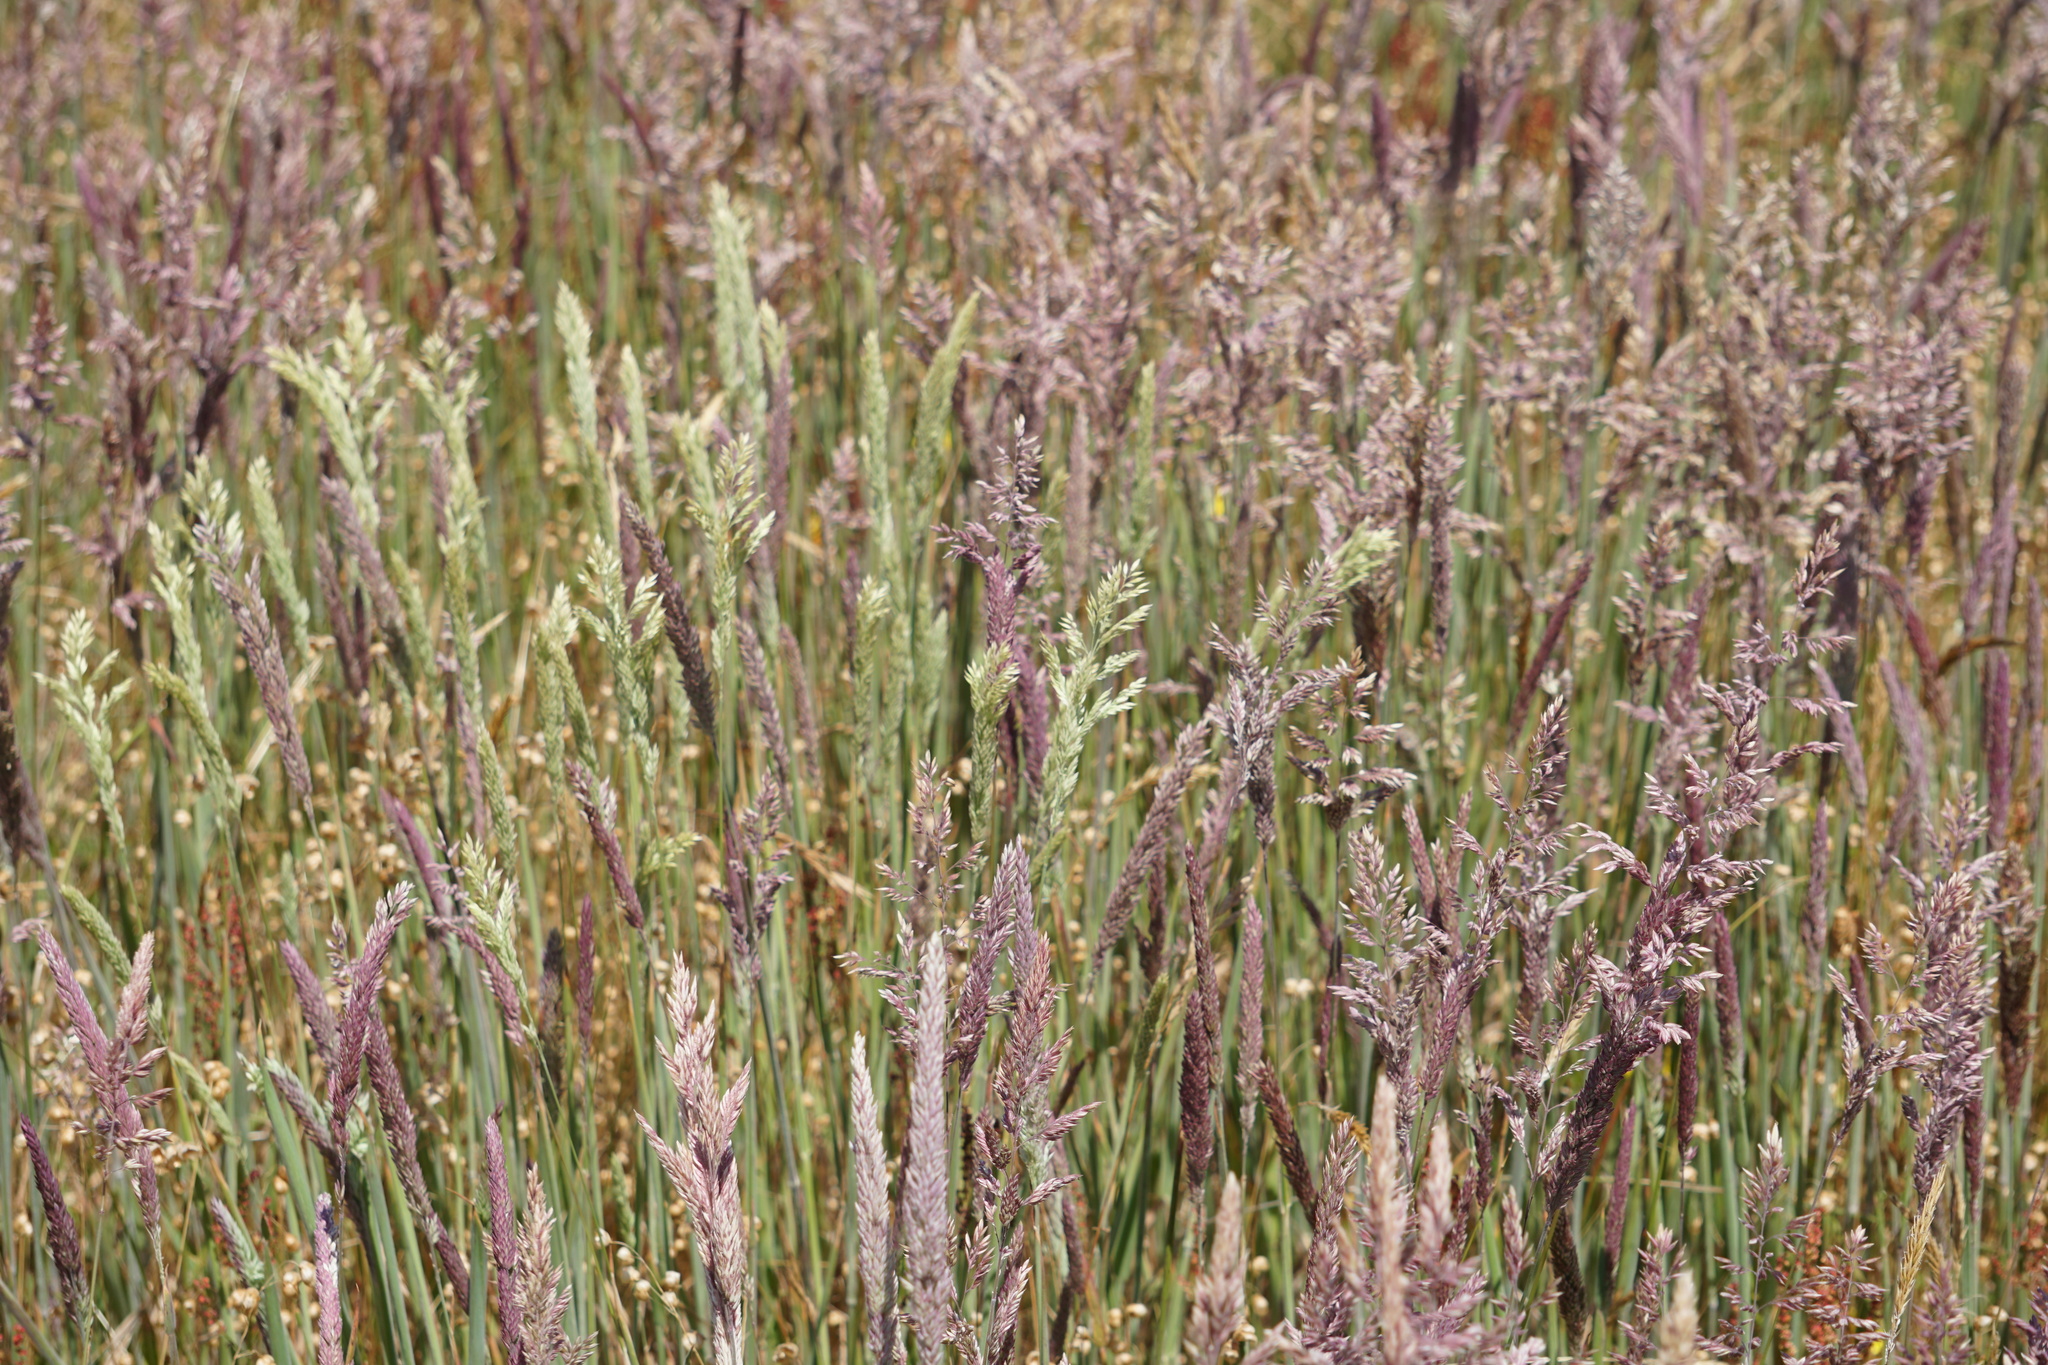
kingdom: Plantae
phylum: Tracheophyta
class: Liliopsida
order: Poales
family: Poaceae
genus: Holcus
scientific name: Holcus lanatus
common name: Yorkshire-fog
